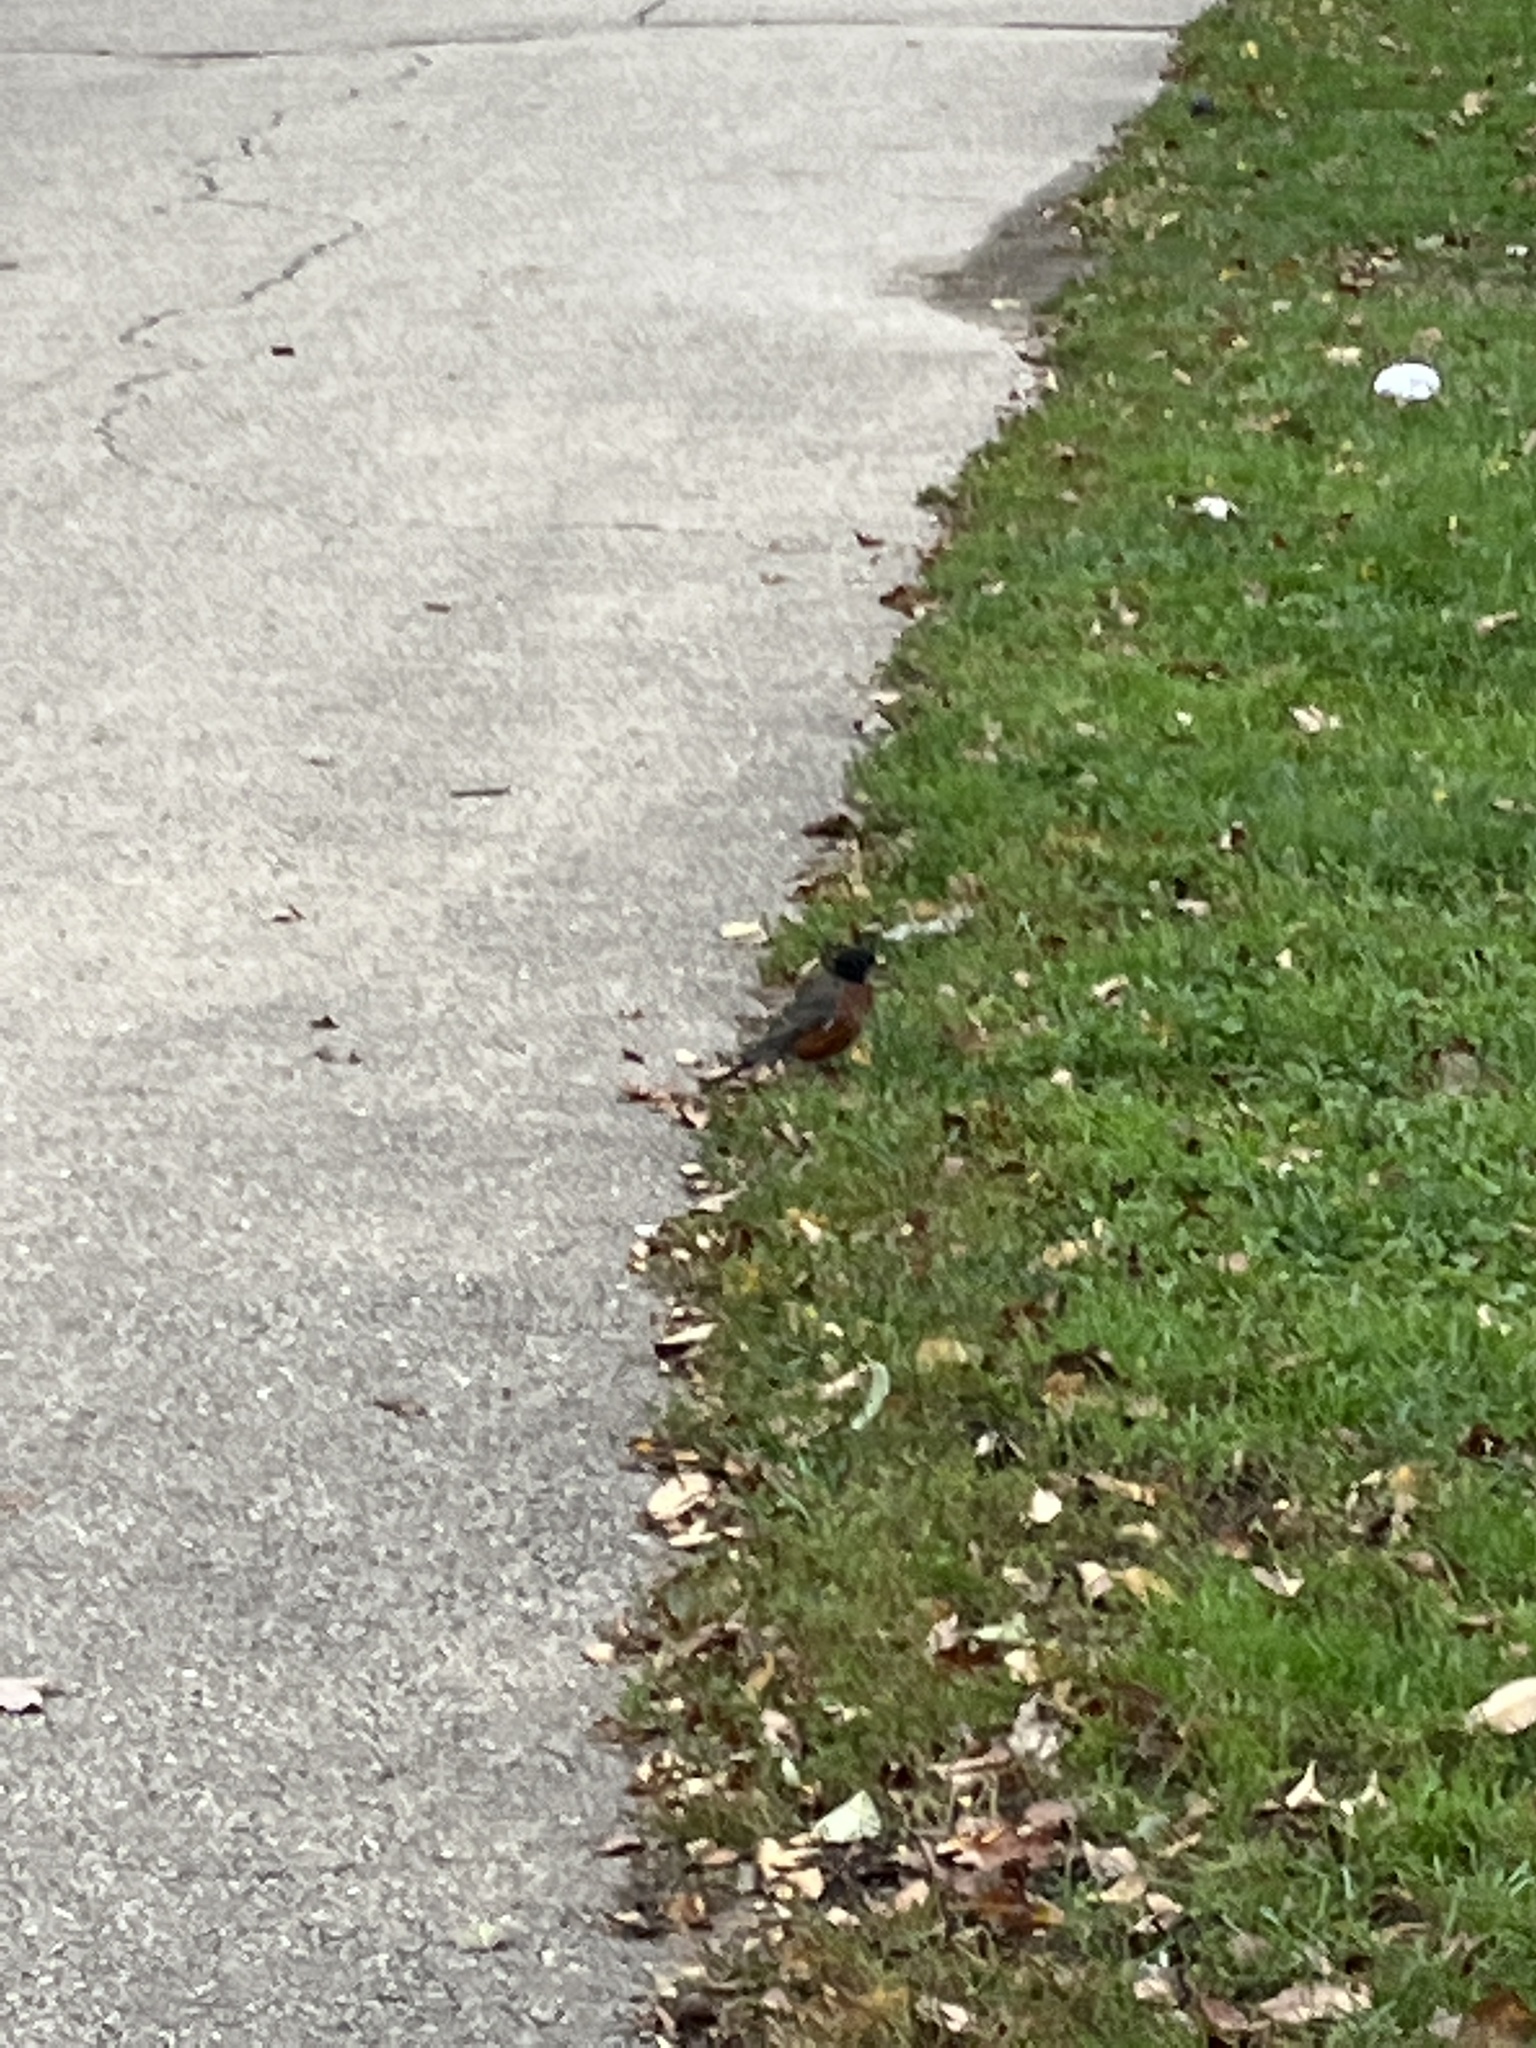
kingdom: Animalia
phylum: Chordata
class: Aves
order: Passeriformes
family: Turdidae
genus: Turdus
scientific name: Turdus migratorius
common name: American robin
